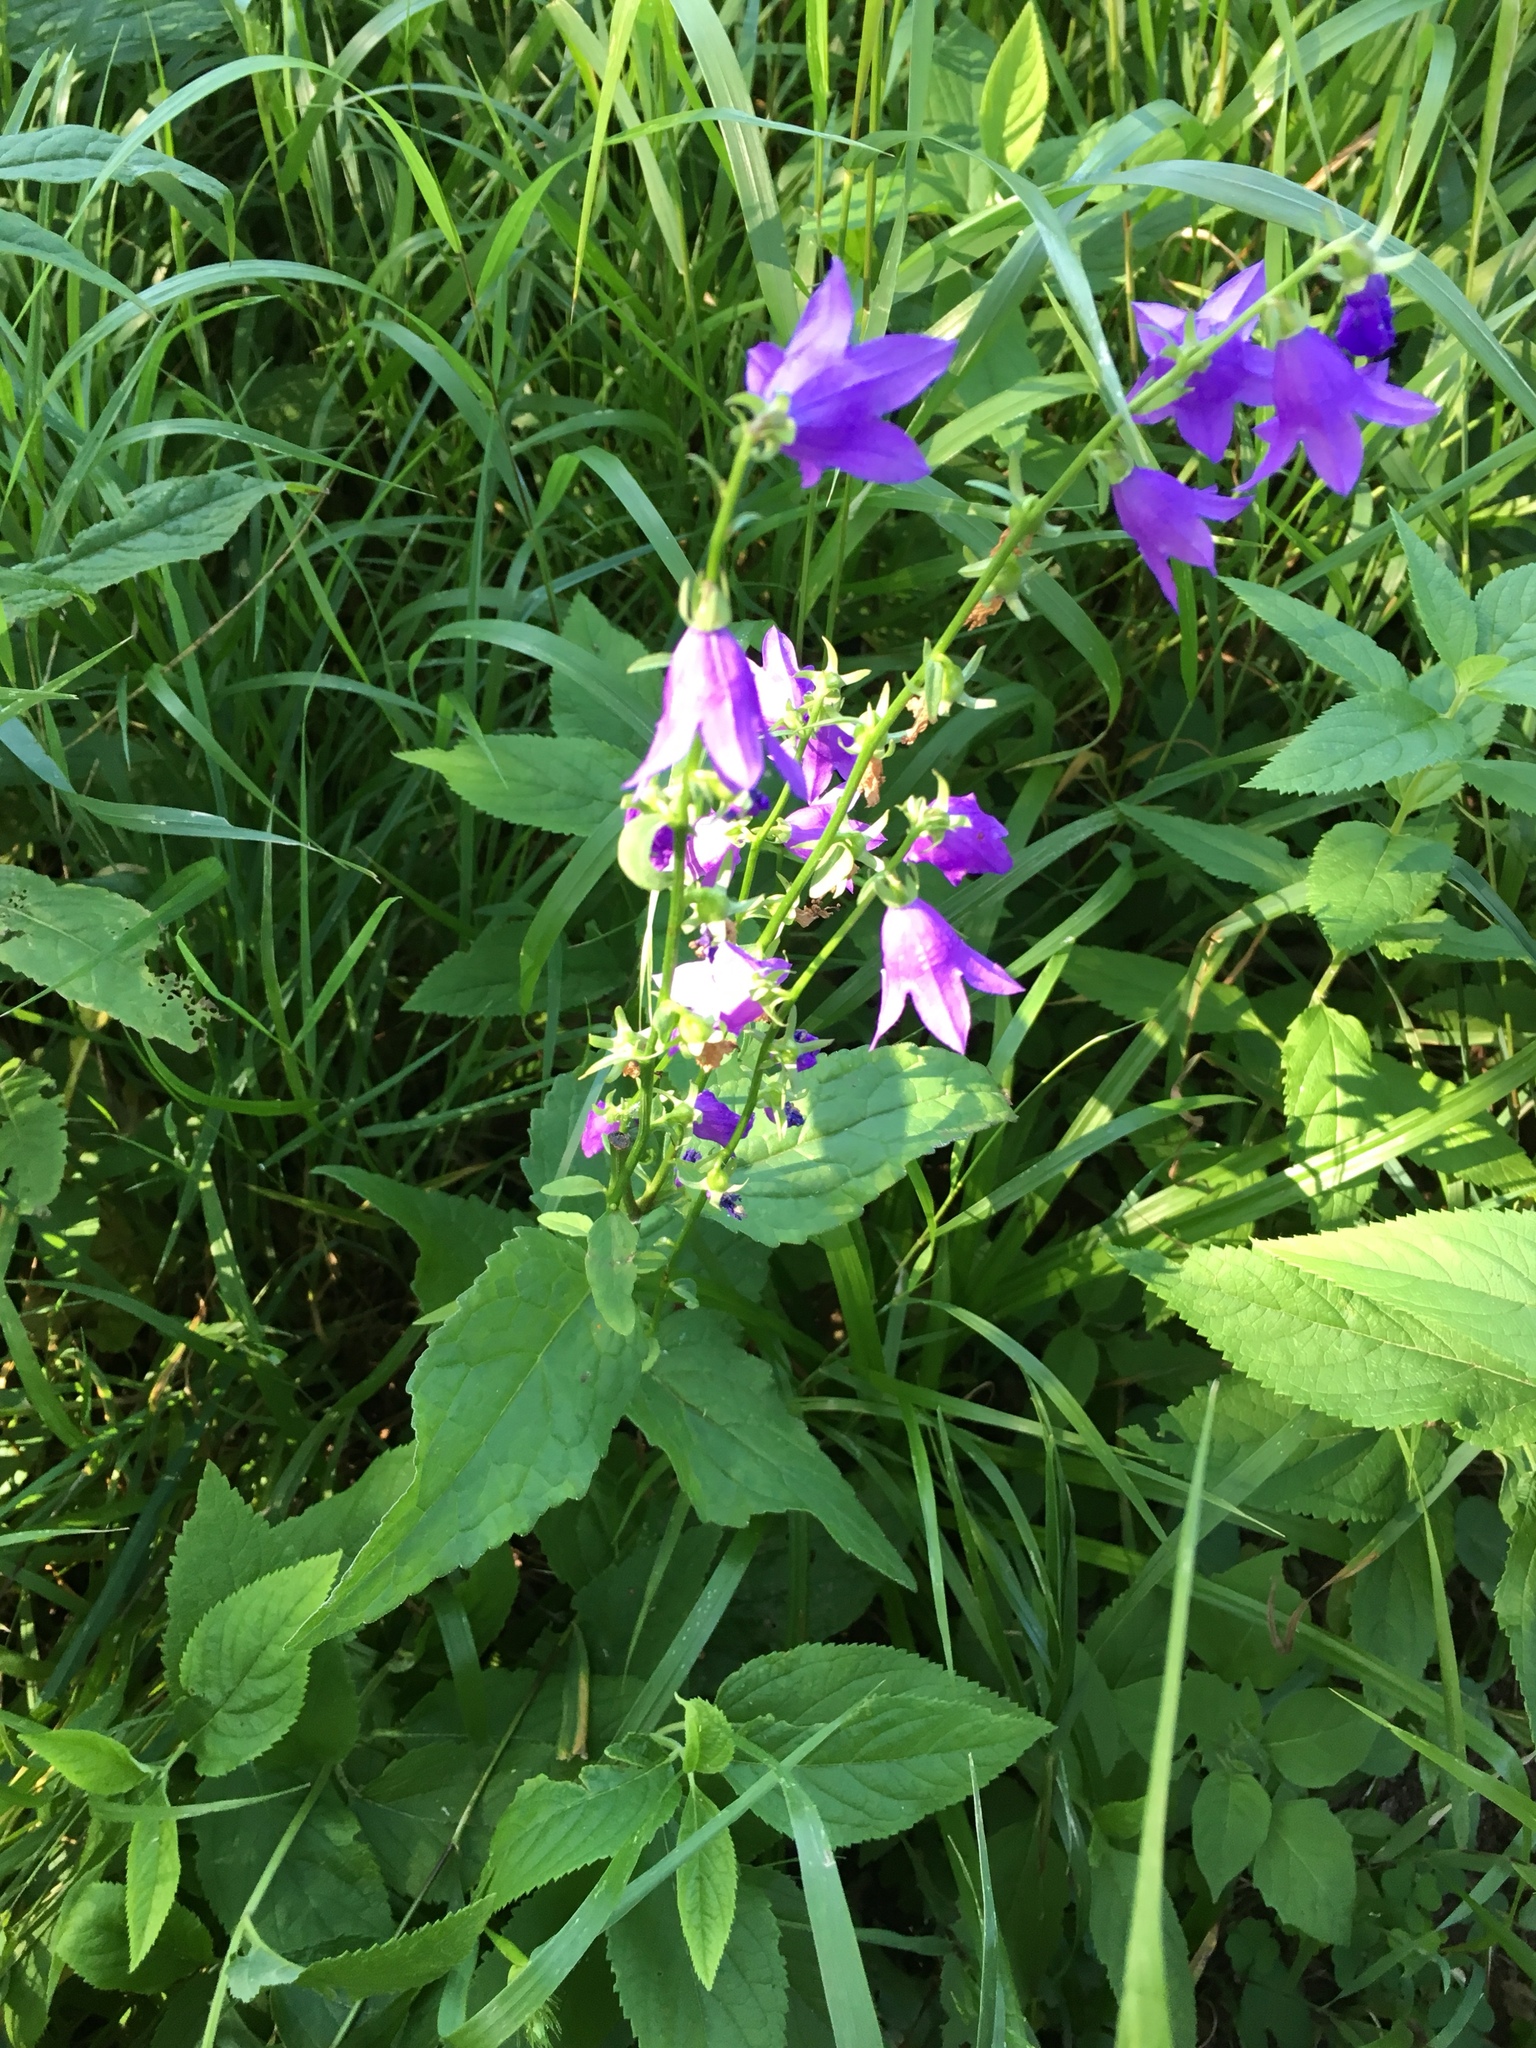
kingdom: Plantae
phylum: Tracheophyta
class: Magnoliopsida
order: Asterales
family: Campanulaceae
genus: Campanula
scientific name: Campanula rapunculoides
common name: Creeping bellflower
